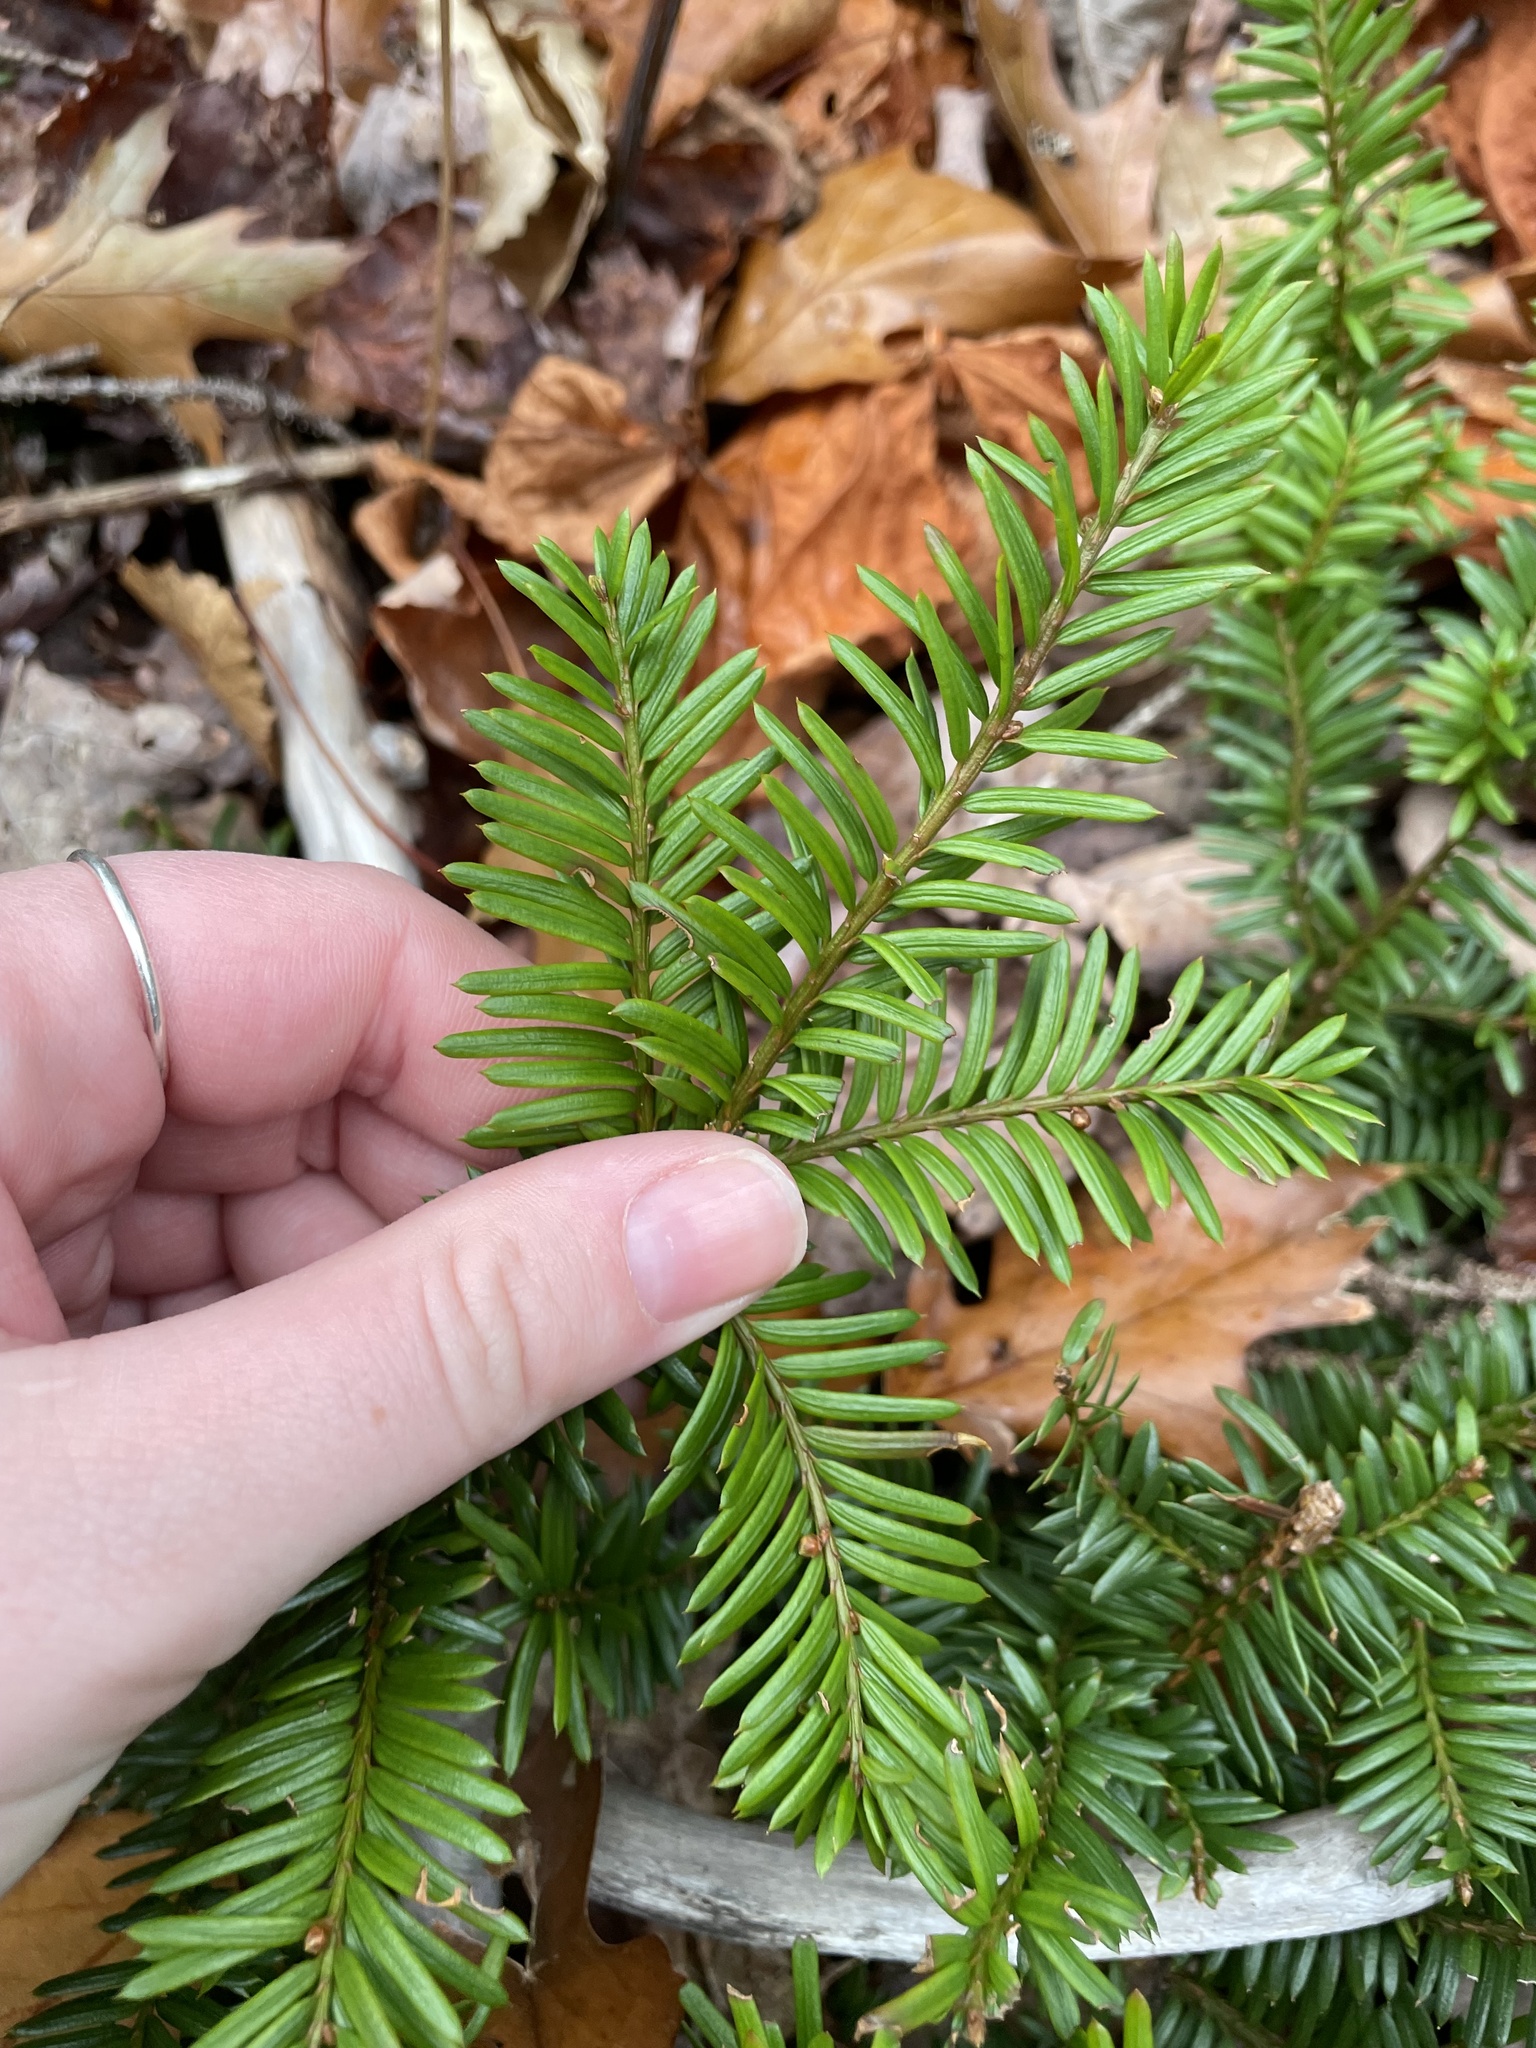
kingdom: Plantae
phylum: Tracheophyta
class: Pinopsida
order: Pinales
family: Taxaceae
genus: Taxus
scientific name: Taxus canadensis
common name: American yew
